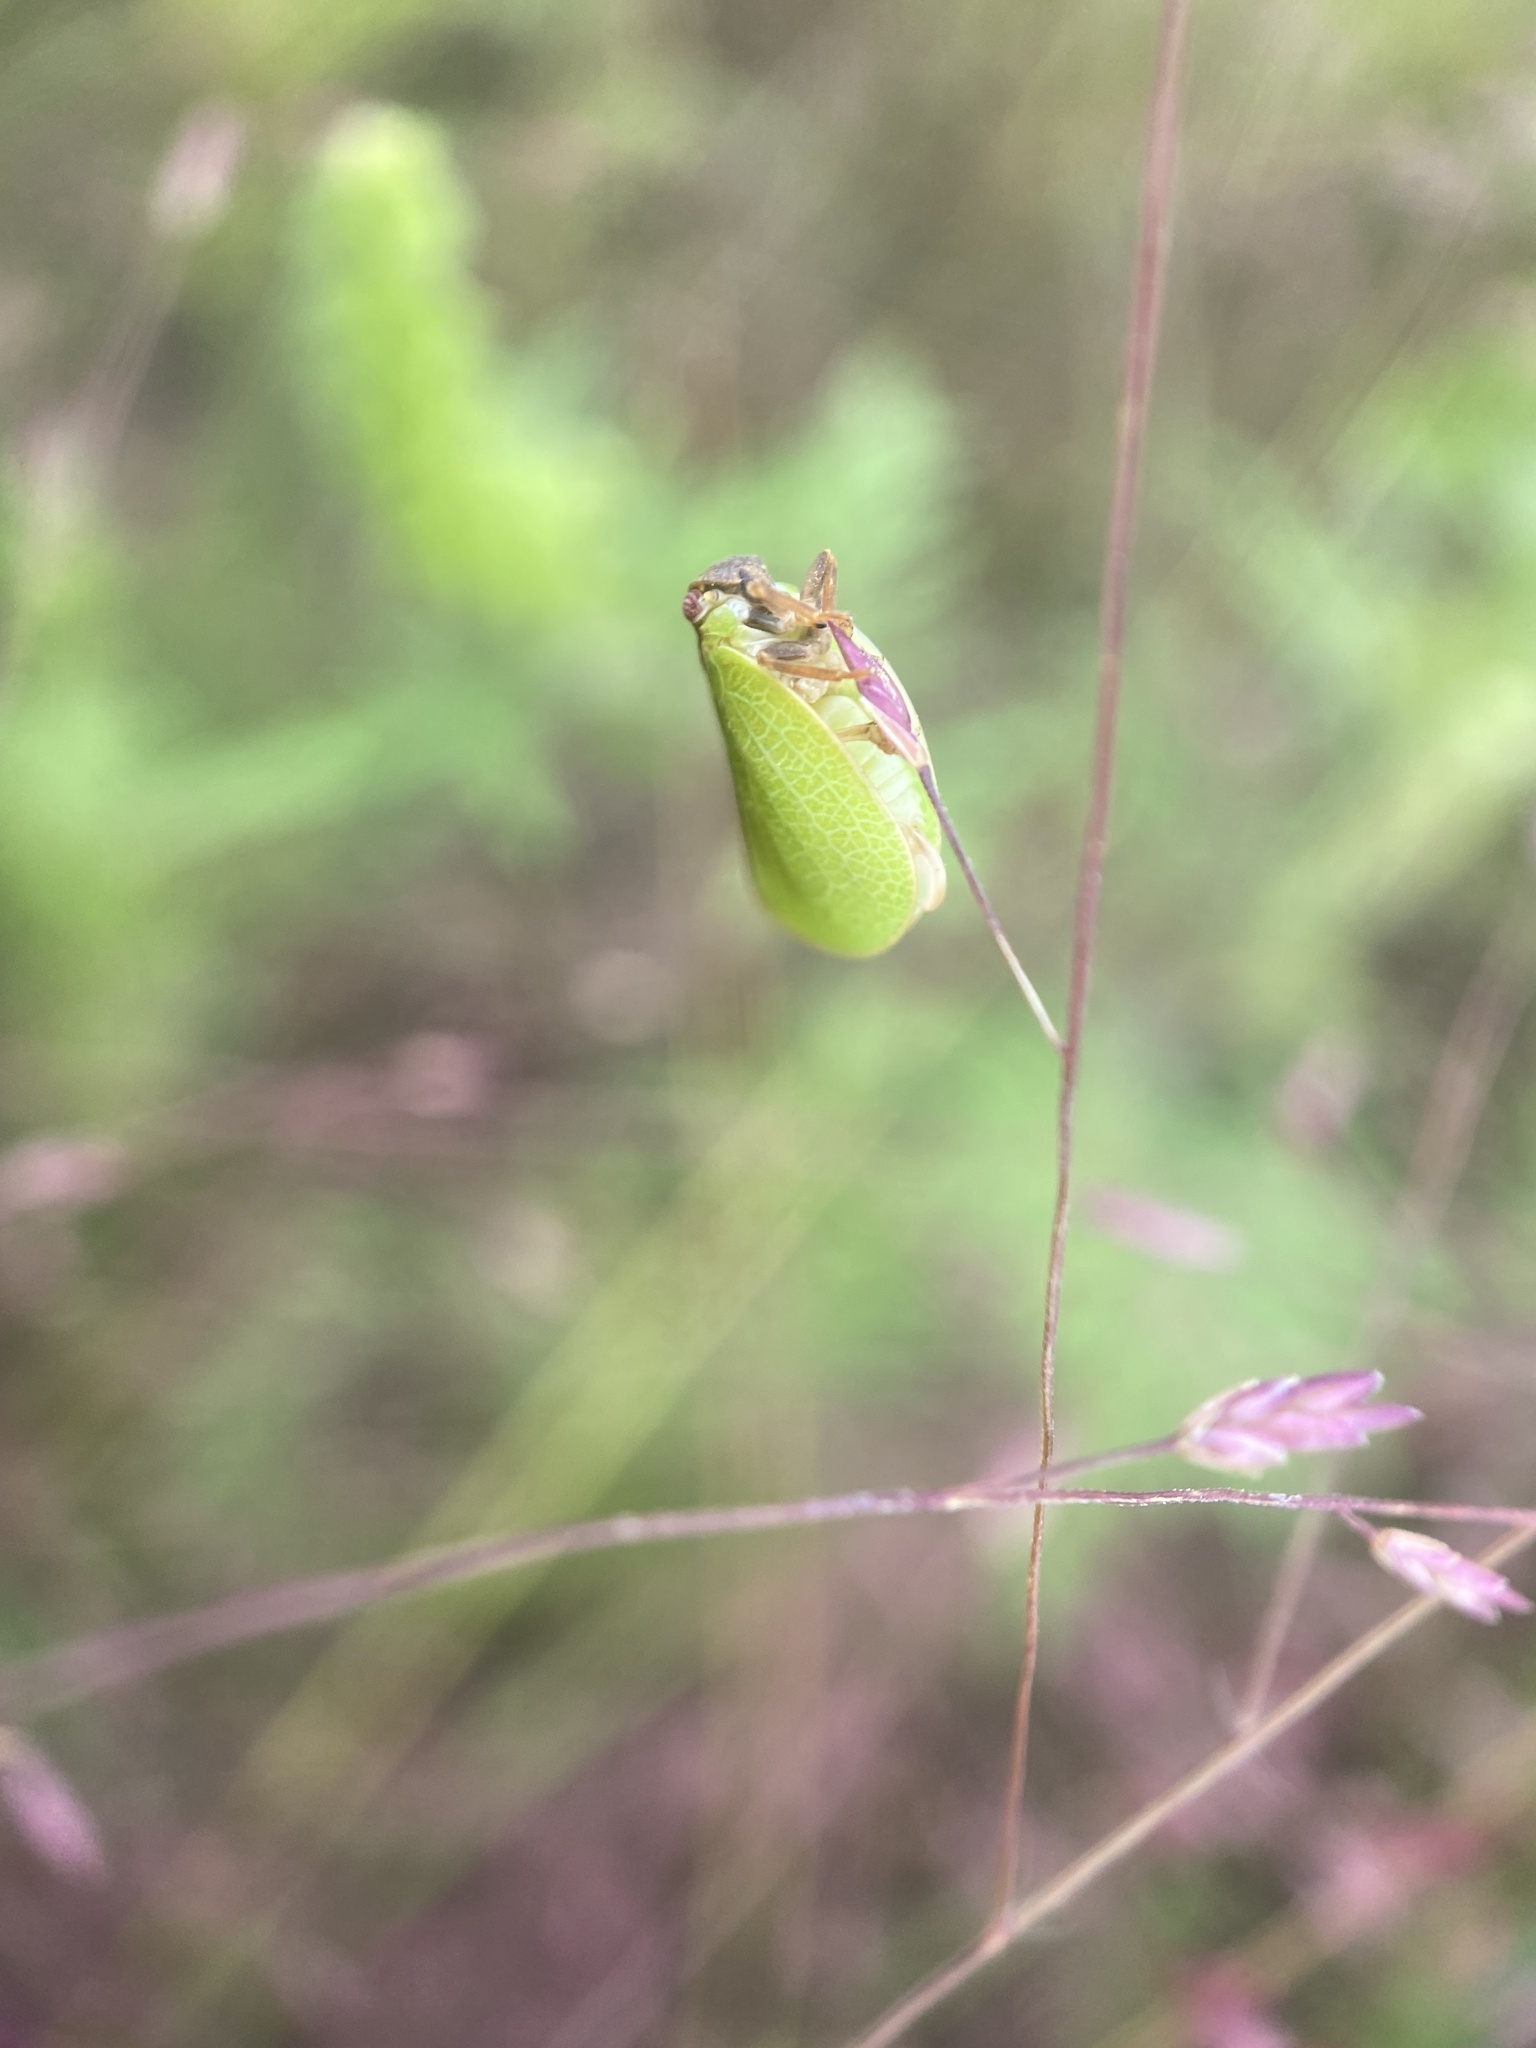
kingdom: Animalia
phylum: Arthropoda
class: Insecta
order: Hemiptera
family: Acanaloniidae
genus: Acanalonia
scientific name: Acanalonia bivittata
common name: Two-striped planthopper
